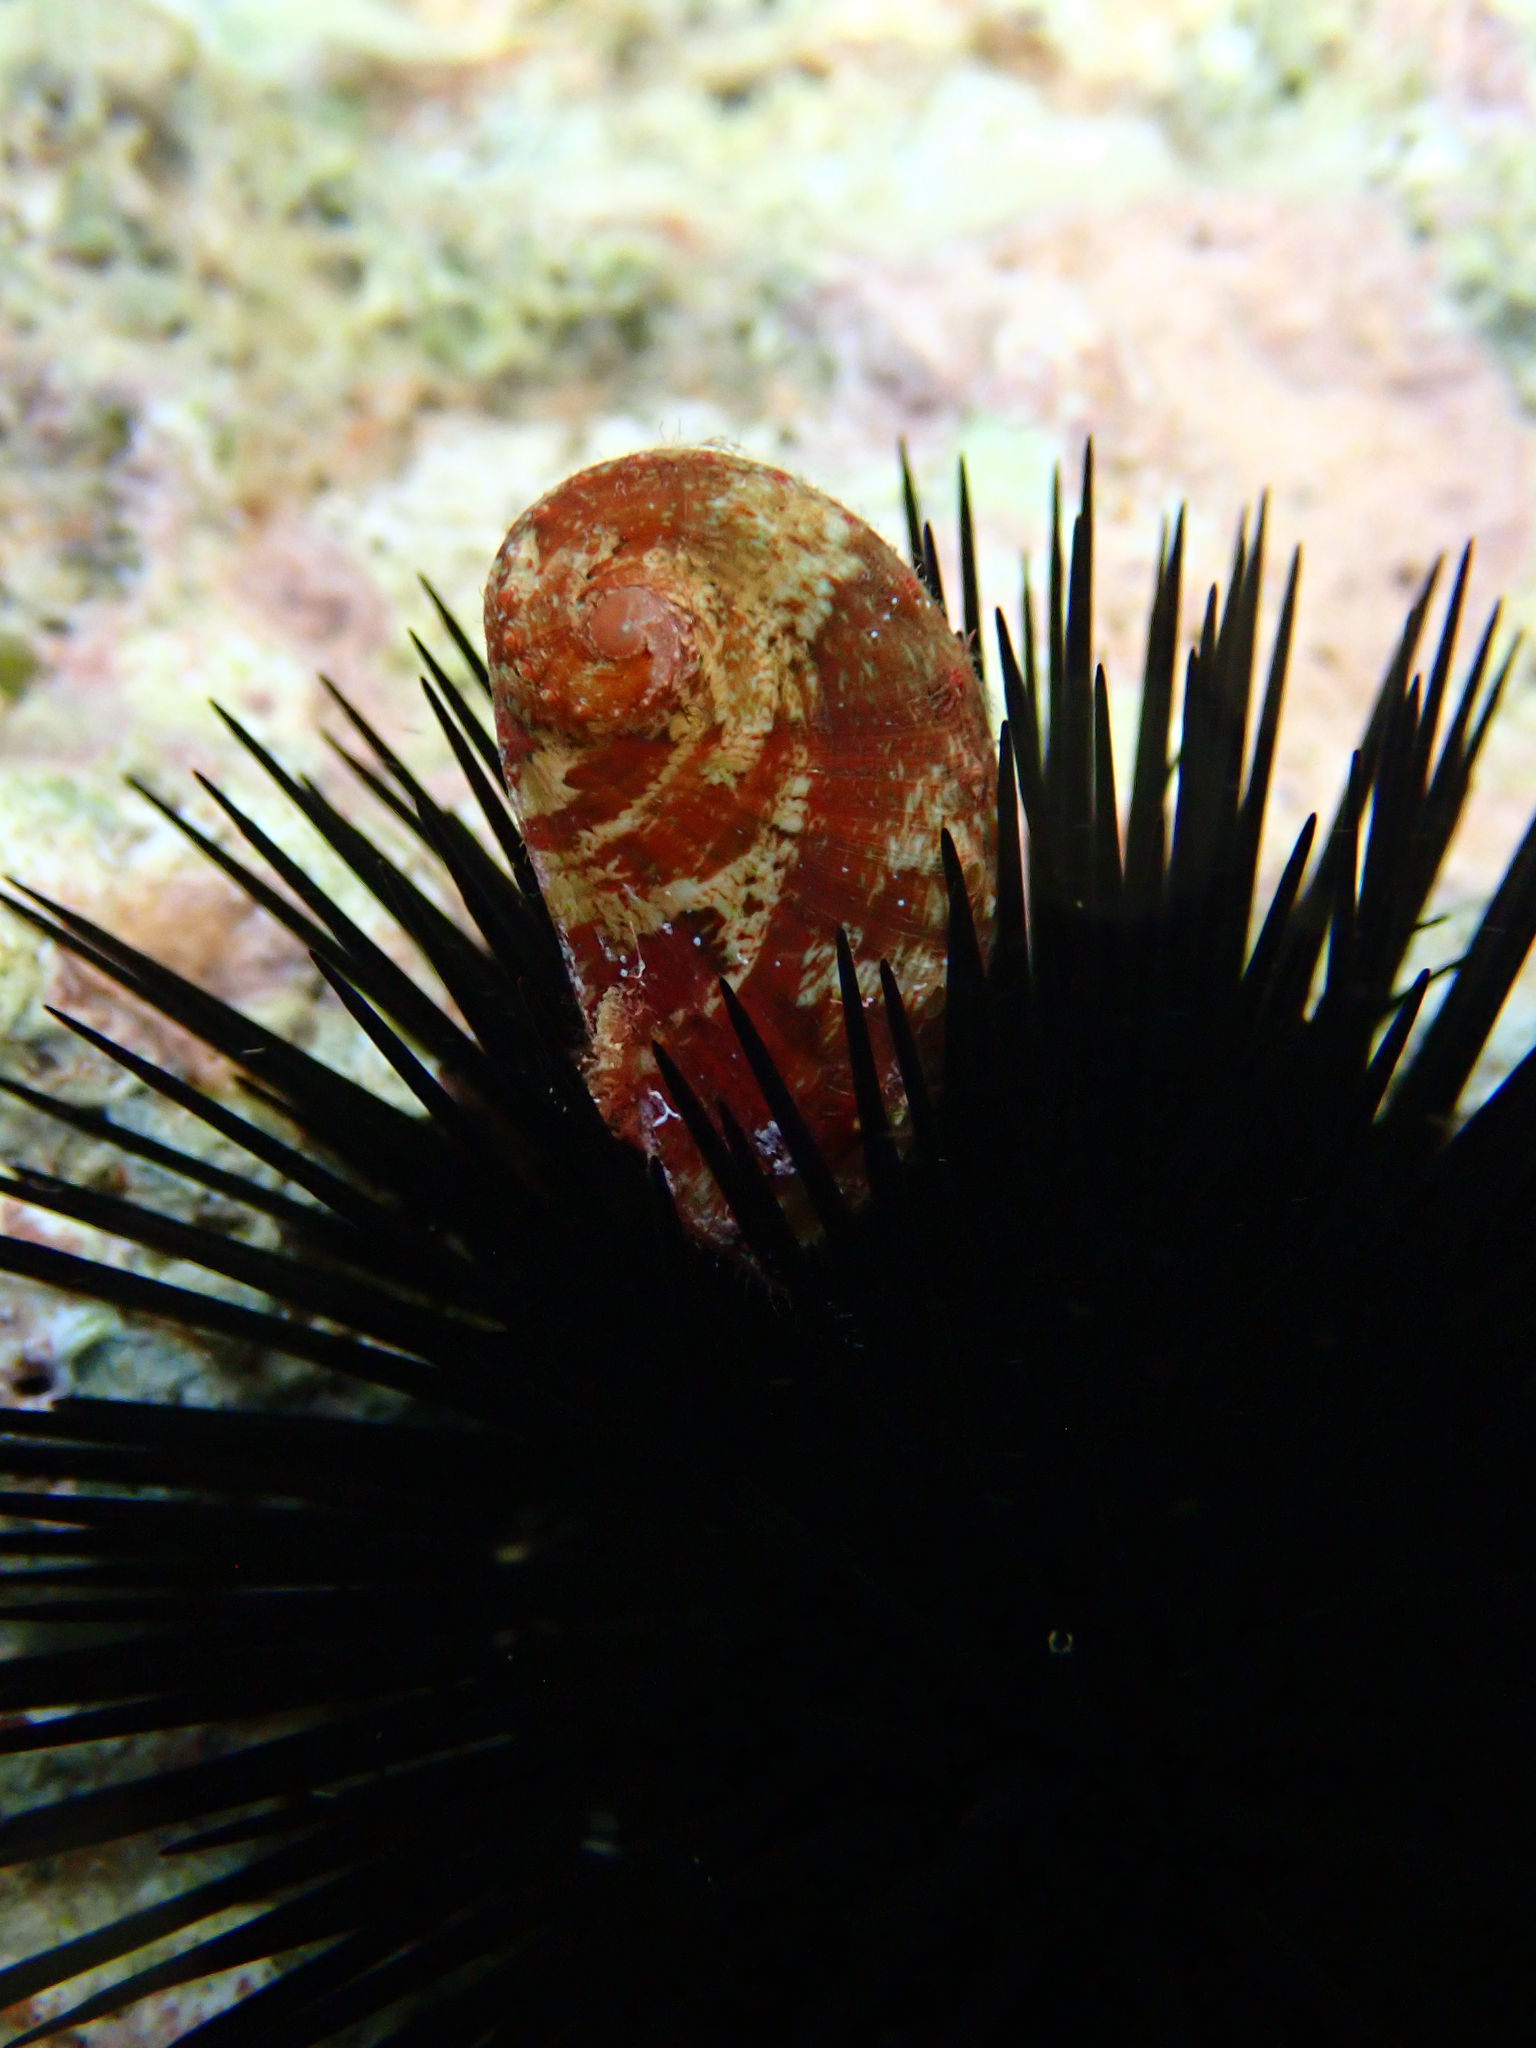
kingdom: Animalia
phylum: Mollusca
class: Gastropoda
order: Lepetellida
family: Haliotidae
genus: Haliotis
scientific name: Haliotis tuberculata
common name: Green ormer
